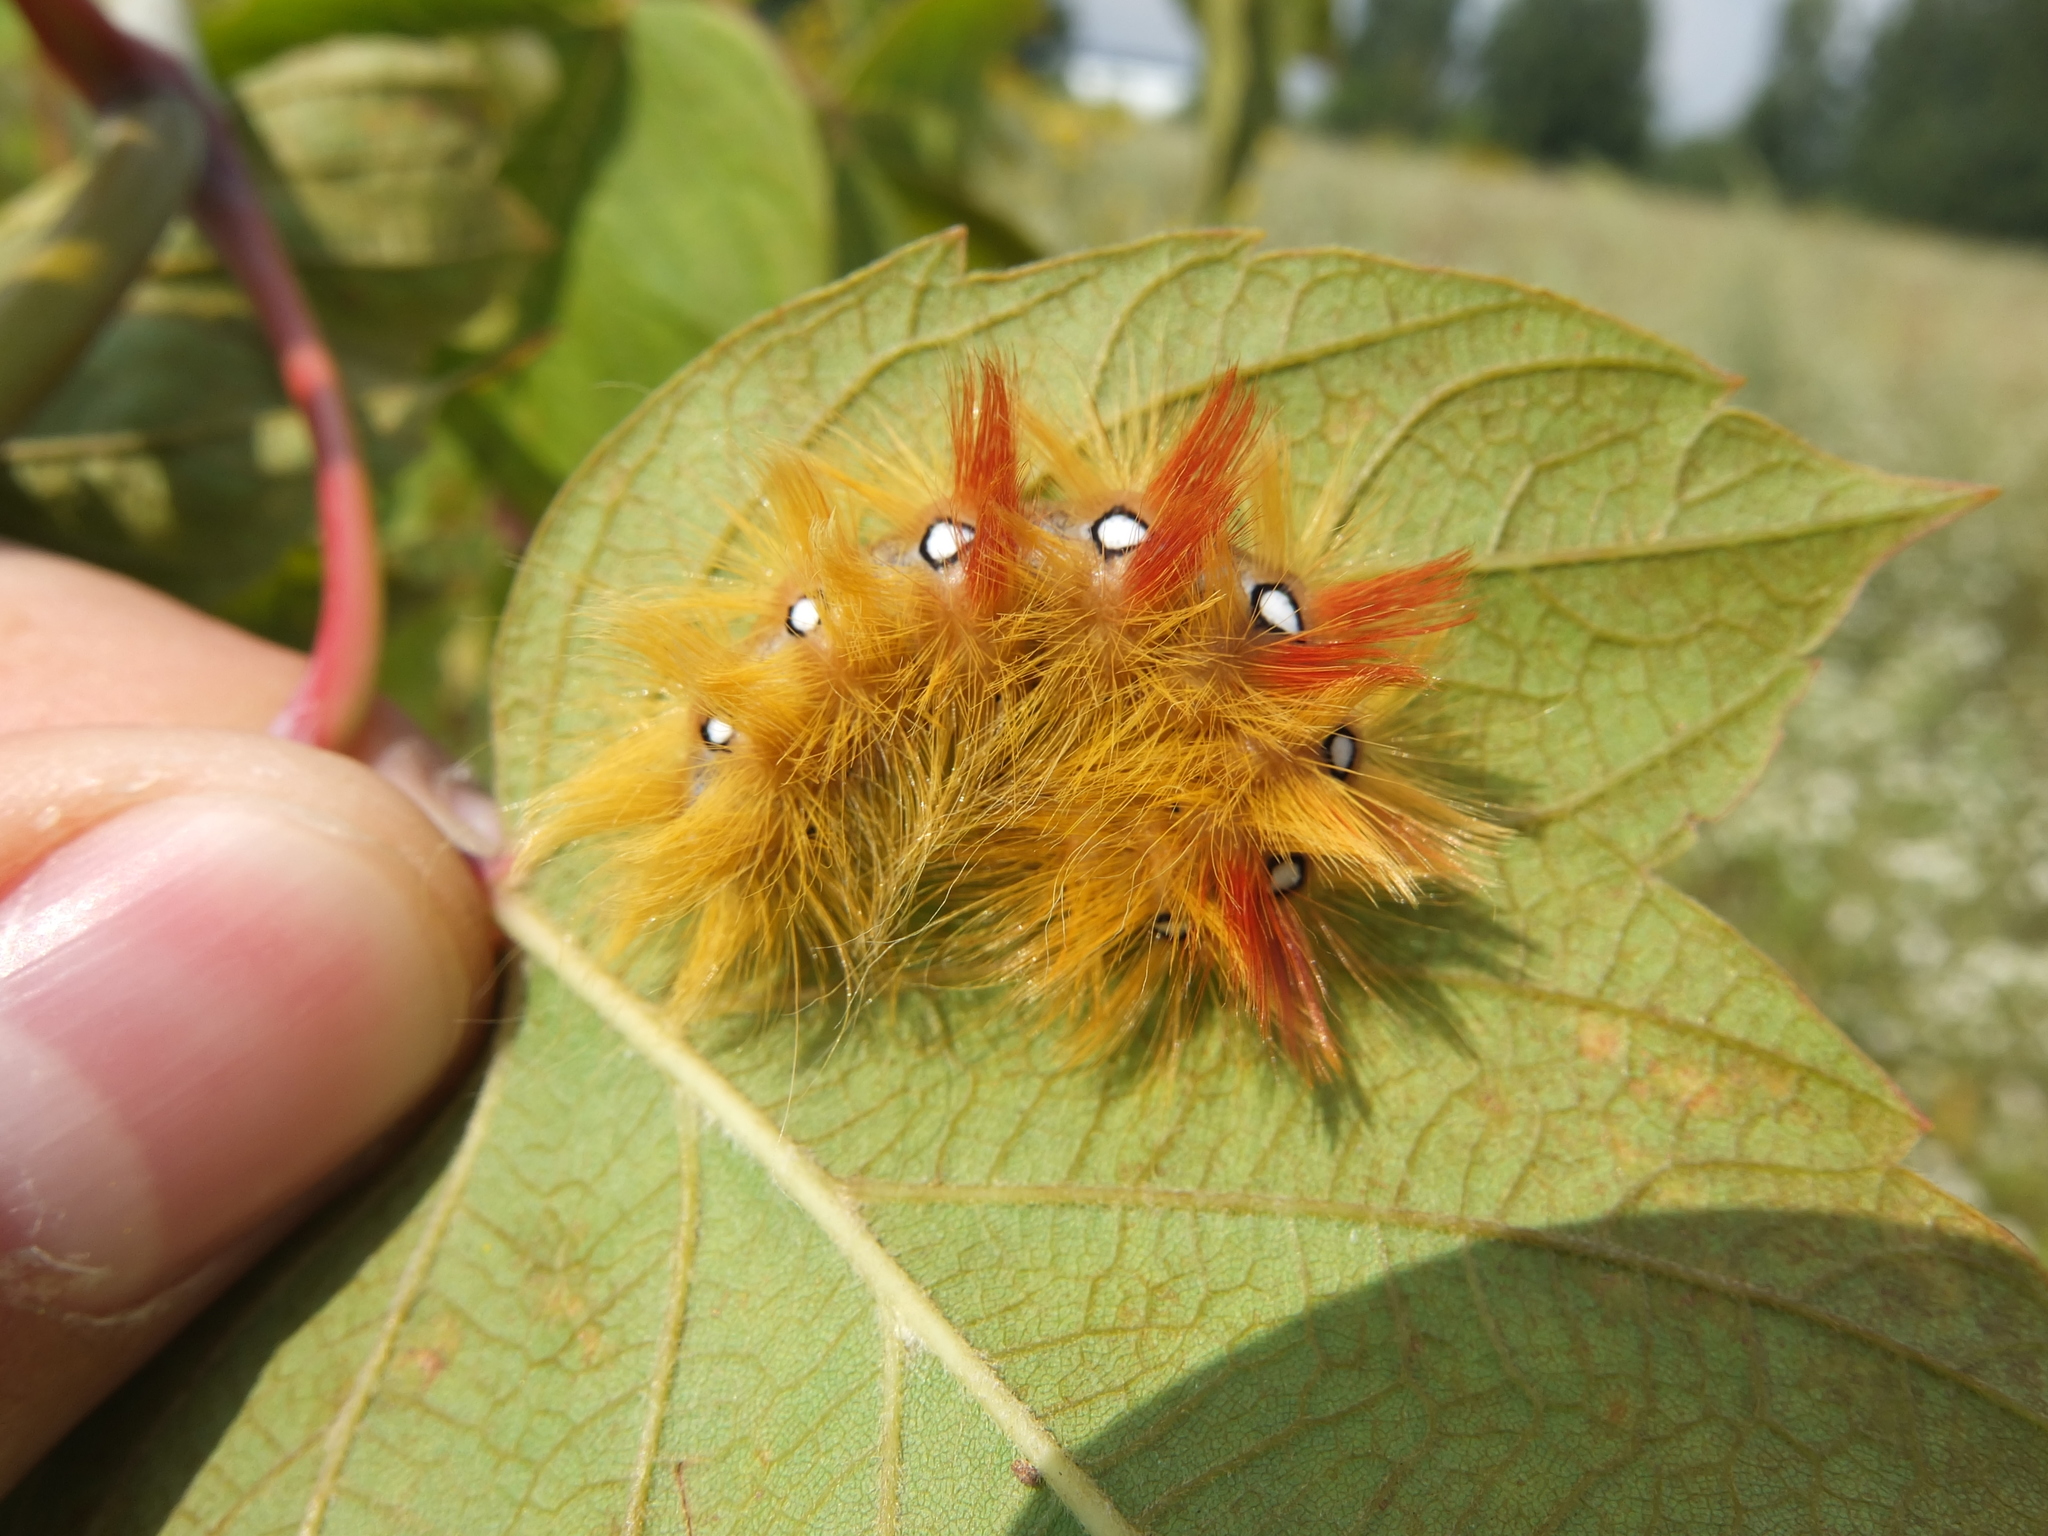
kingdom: Animalia
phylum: Arthropoda
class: Insecta
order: Lepidoptera
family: Noctuidae
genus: Acronicta
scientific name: Acronicta aceris
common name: Sycamore
